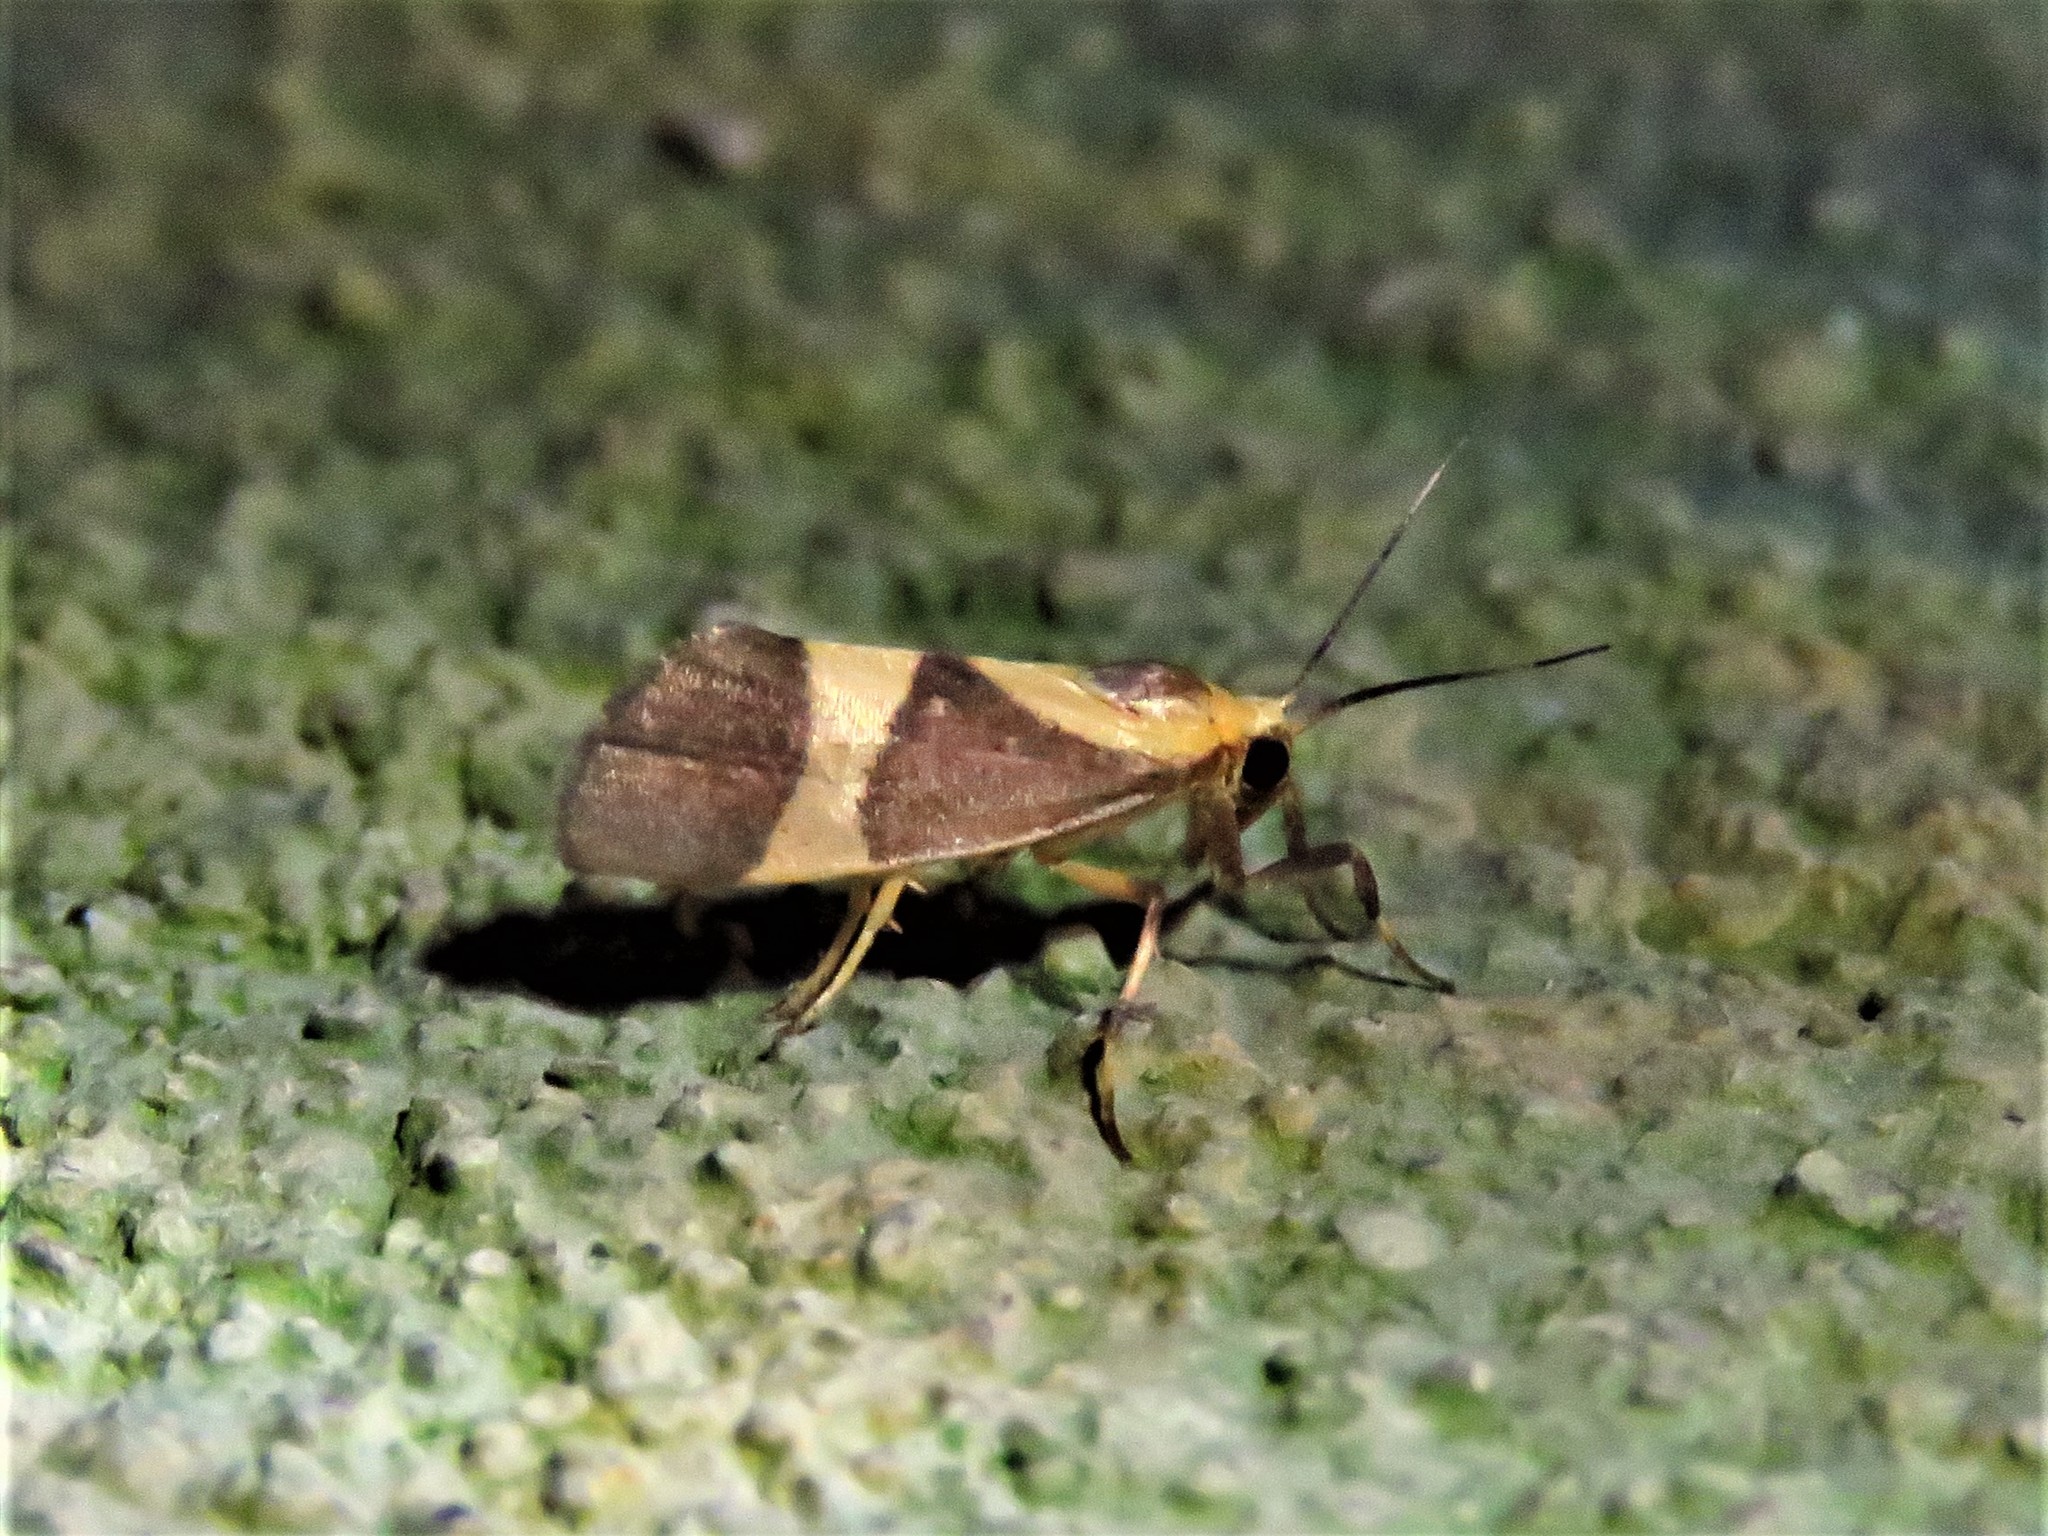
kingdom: Animalia
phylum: Arthropoda
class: Insecta
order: Lepidoptera
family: Erebidae
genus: Cisthene
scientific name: Cisthene subrufa
